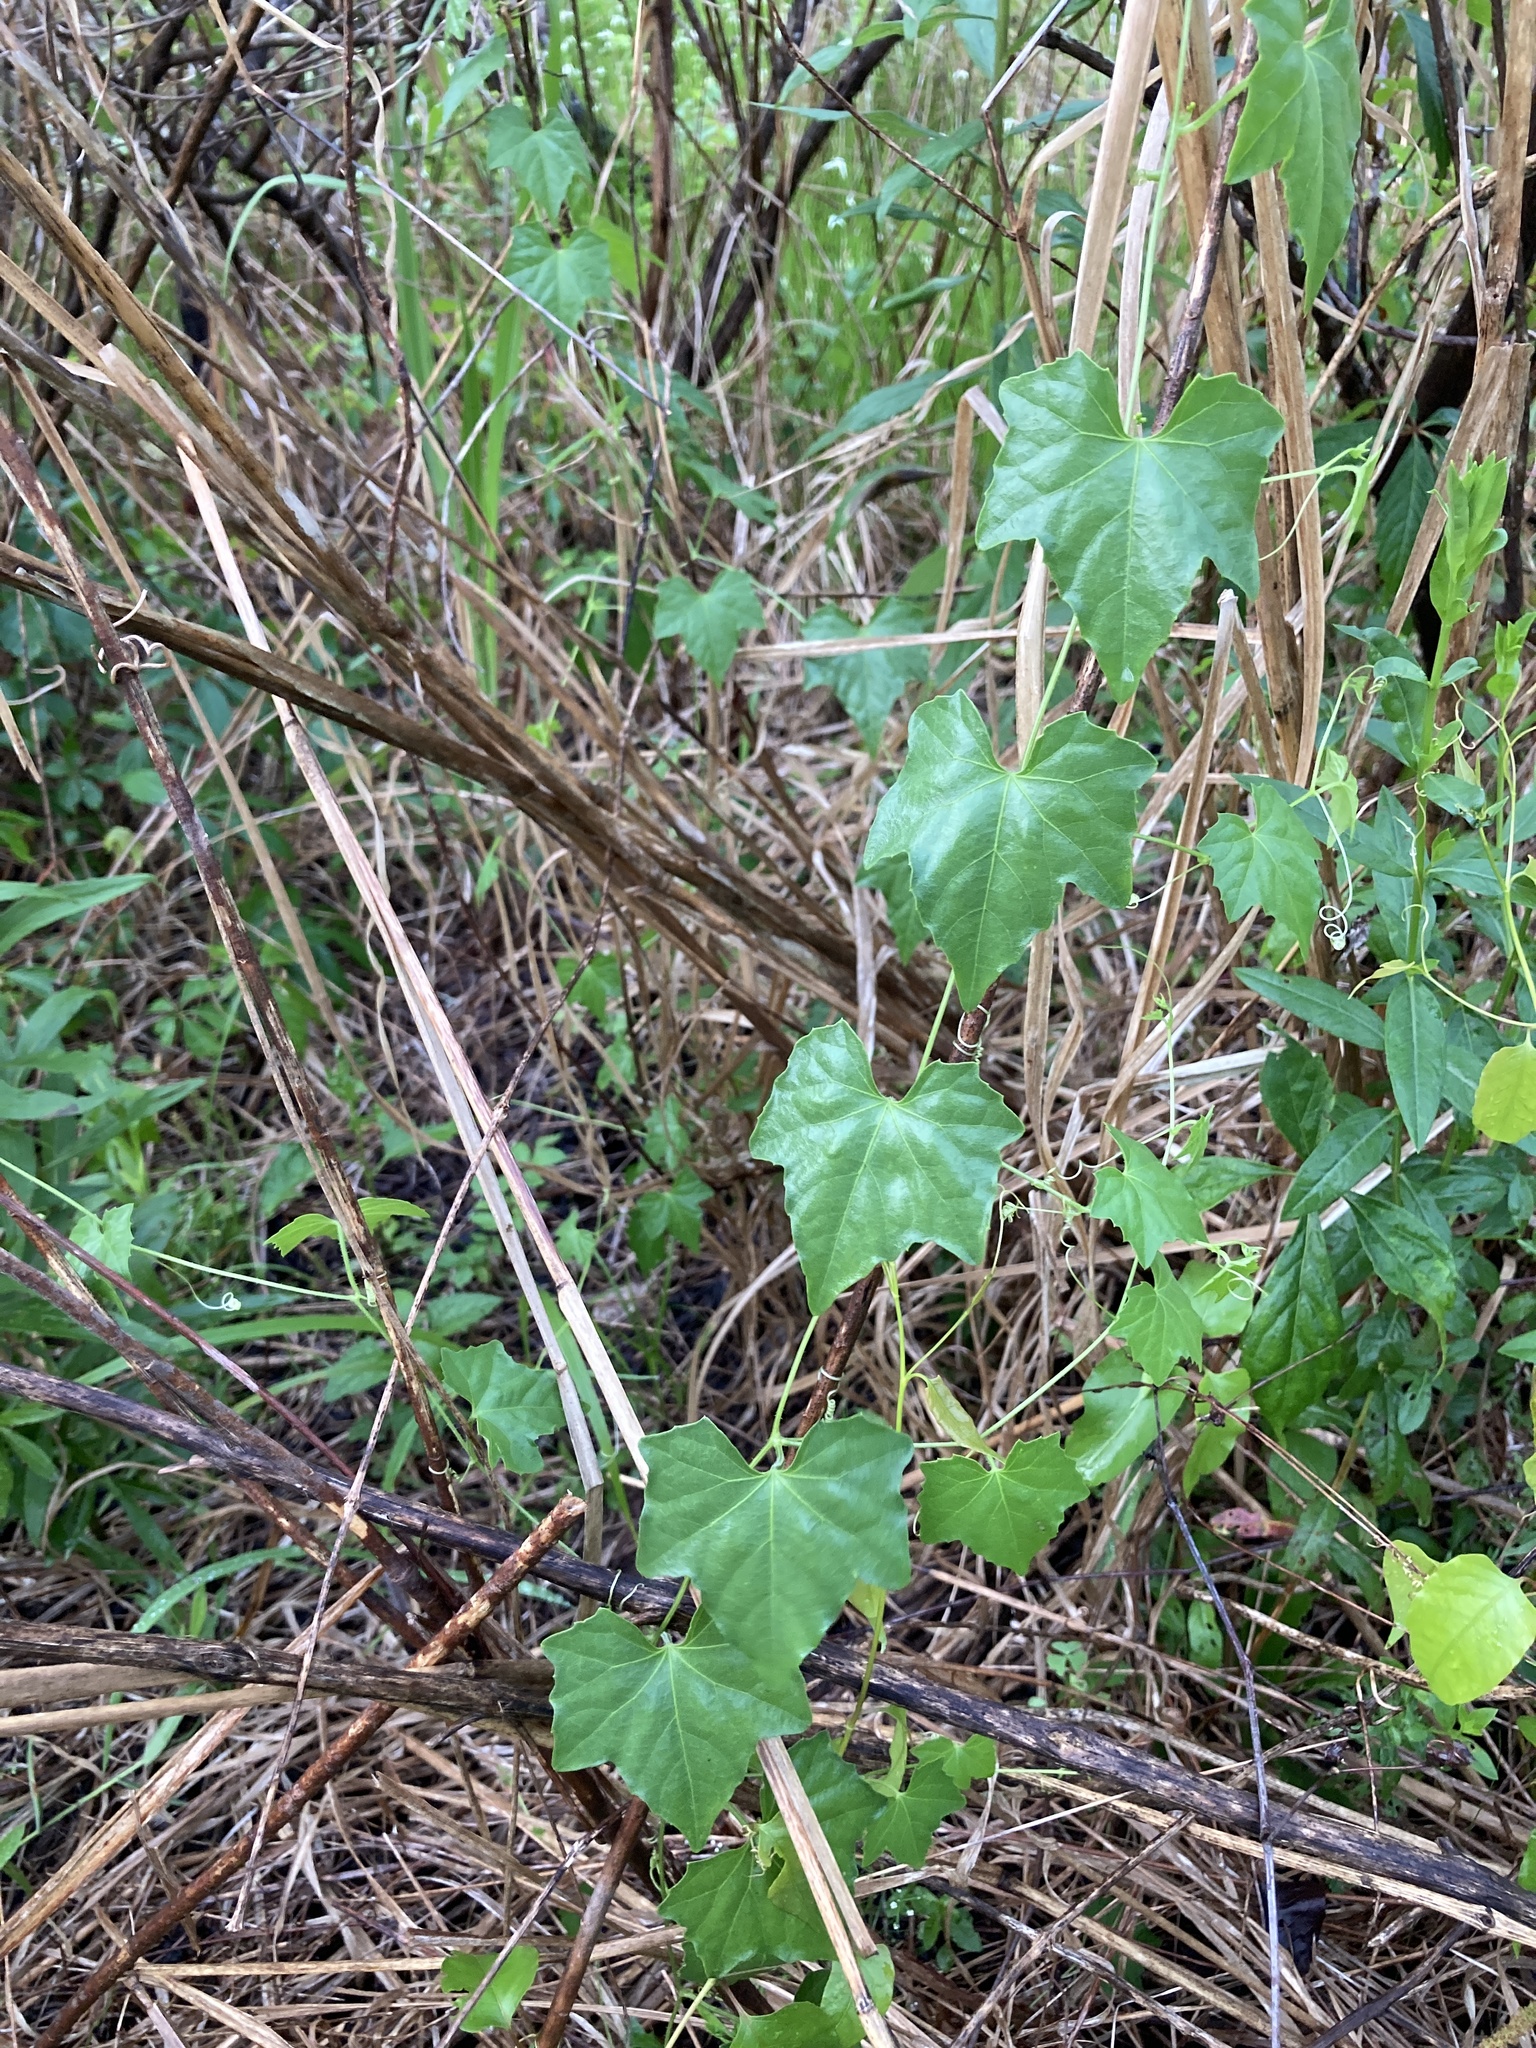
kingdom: Plantae
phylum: Tracheophyta
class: Magnoliopsida
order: Cucurbitales
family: Cucurbitaceae
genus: Melothria
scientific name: Melothria pendula
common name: Creeping-cucumber
